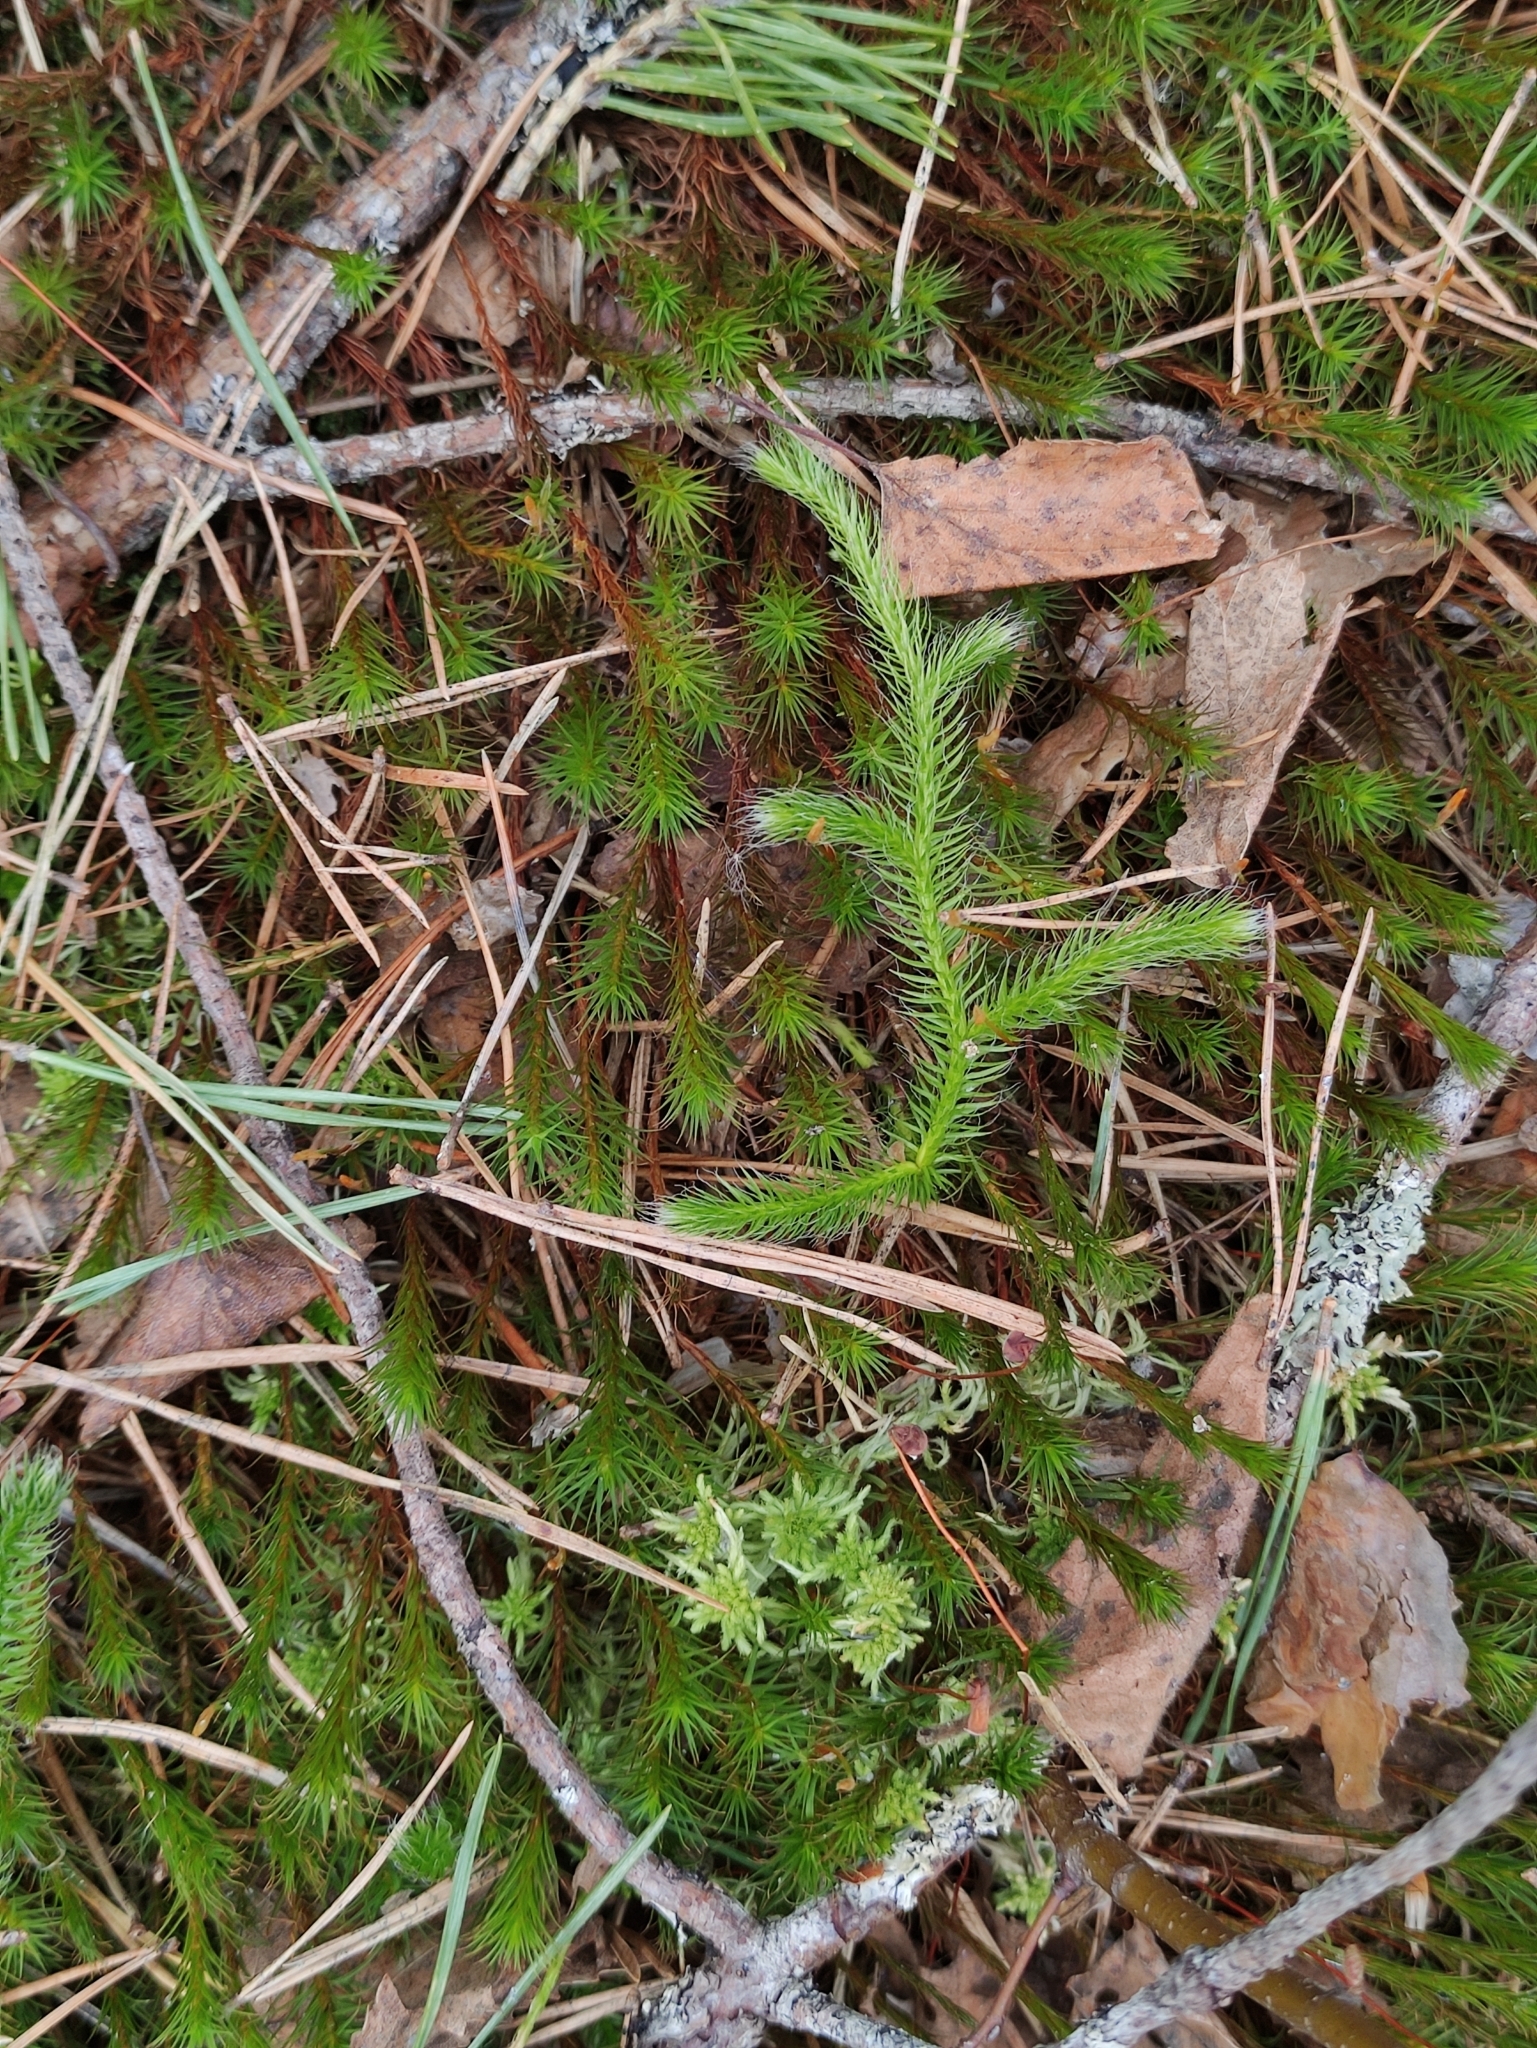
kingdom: Plantae
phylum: Tracheophyta
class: Lycopodiopsida
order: Lycopodiales
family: Lycopodiaceae
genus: Lycopodium
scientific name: Lycopodium clavatum
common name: Stag's-horn clubmoss
